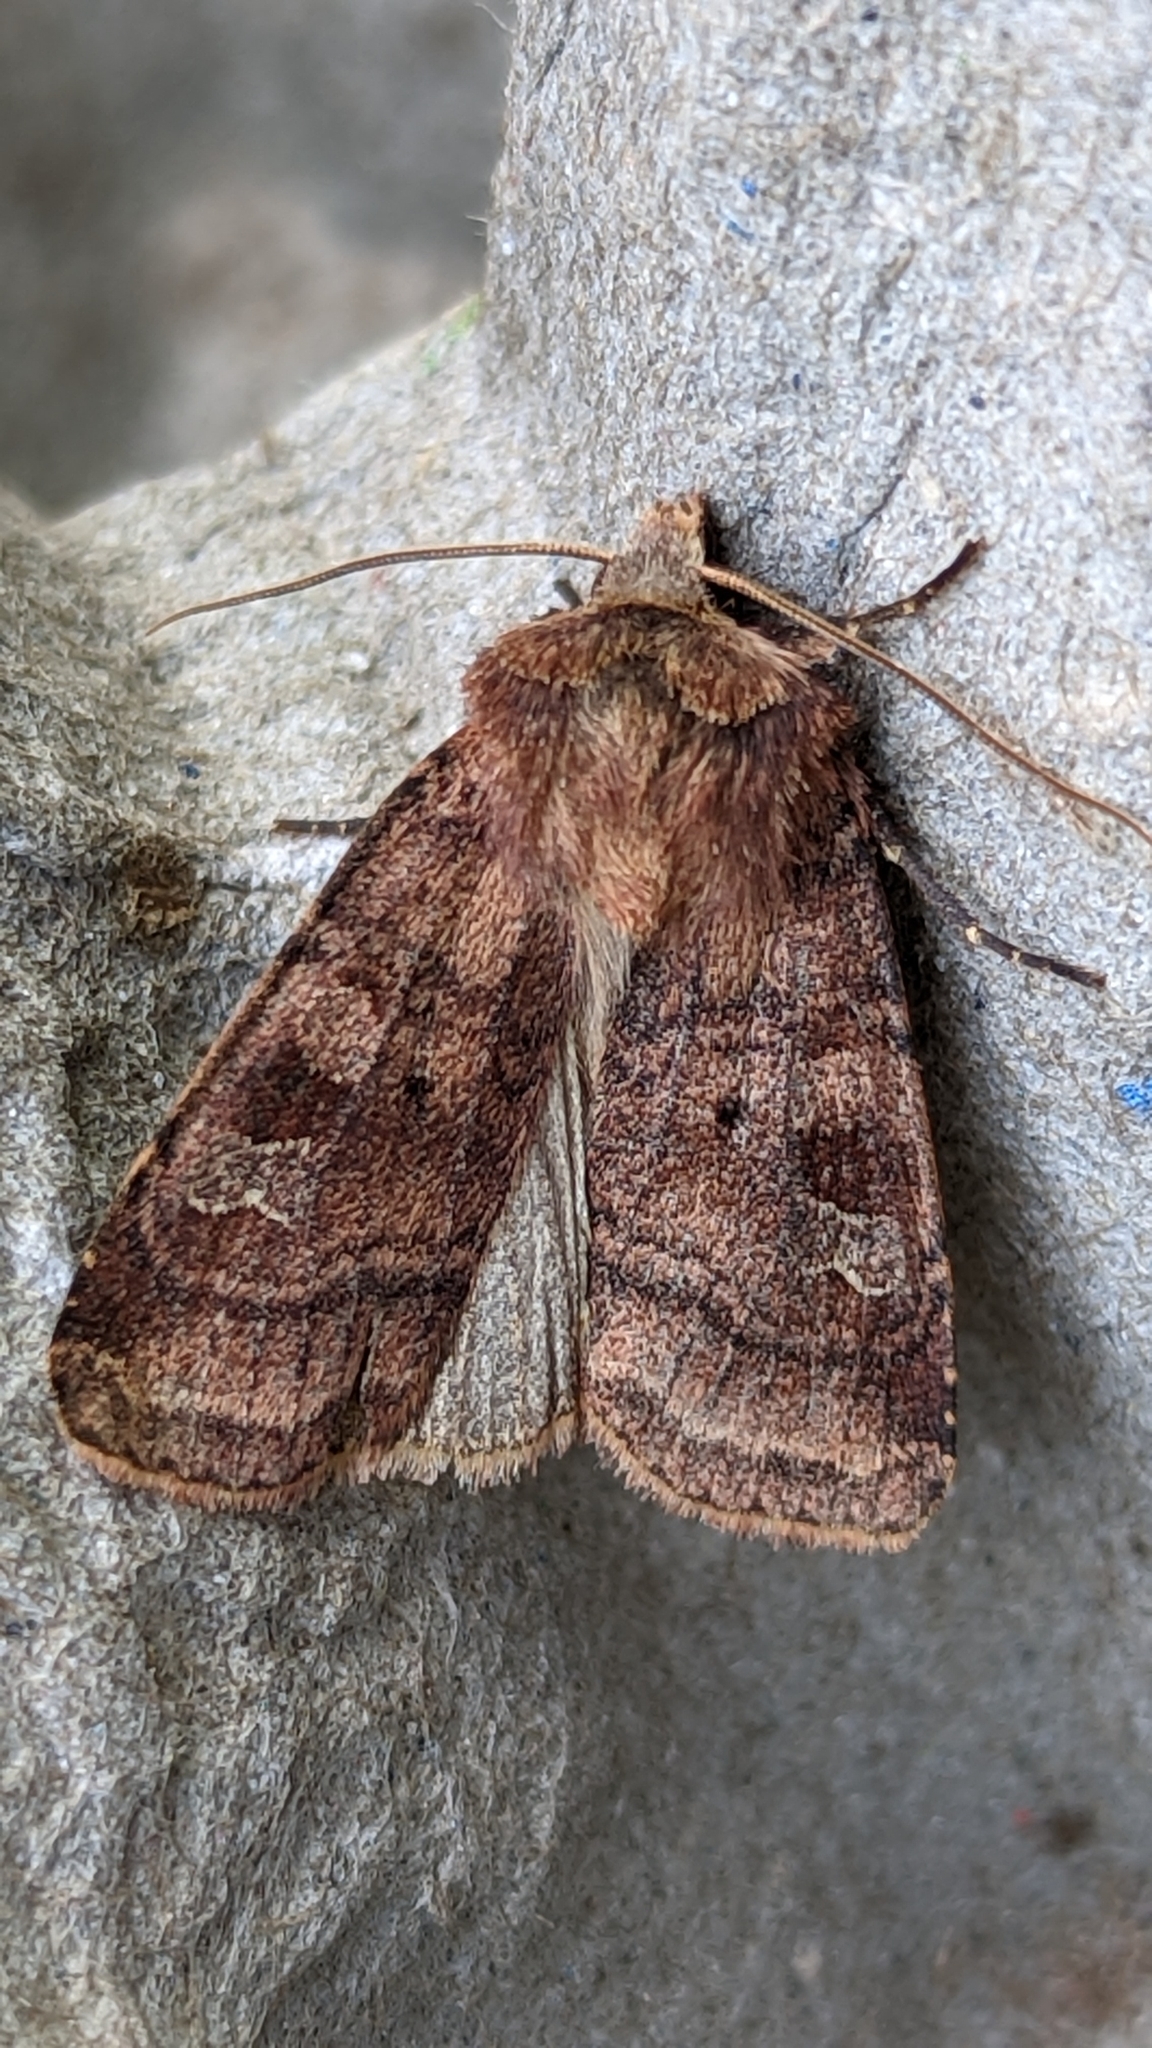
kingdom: Animalia
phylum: Arthropoda
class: Insecta
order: Lepidoptera
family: Noctuidae
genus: Diarsia
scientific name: Diarsia rubi
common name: Small square-spot
